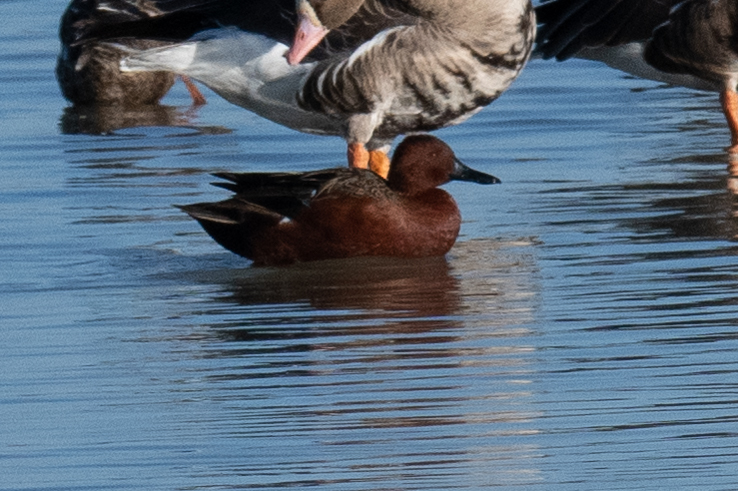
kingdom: Animalia
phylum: Chordata
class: Aves
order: Anseriformes
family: Anatidae
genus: Spatula
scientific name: Spatula cyanoptera
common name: Cinnamon teal
